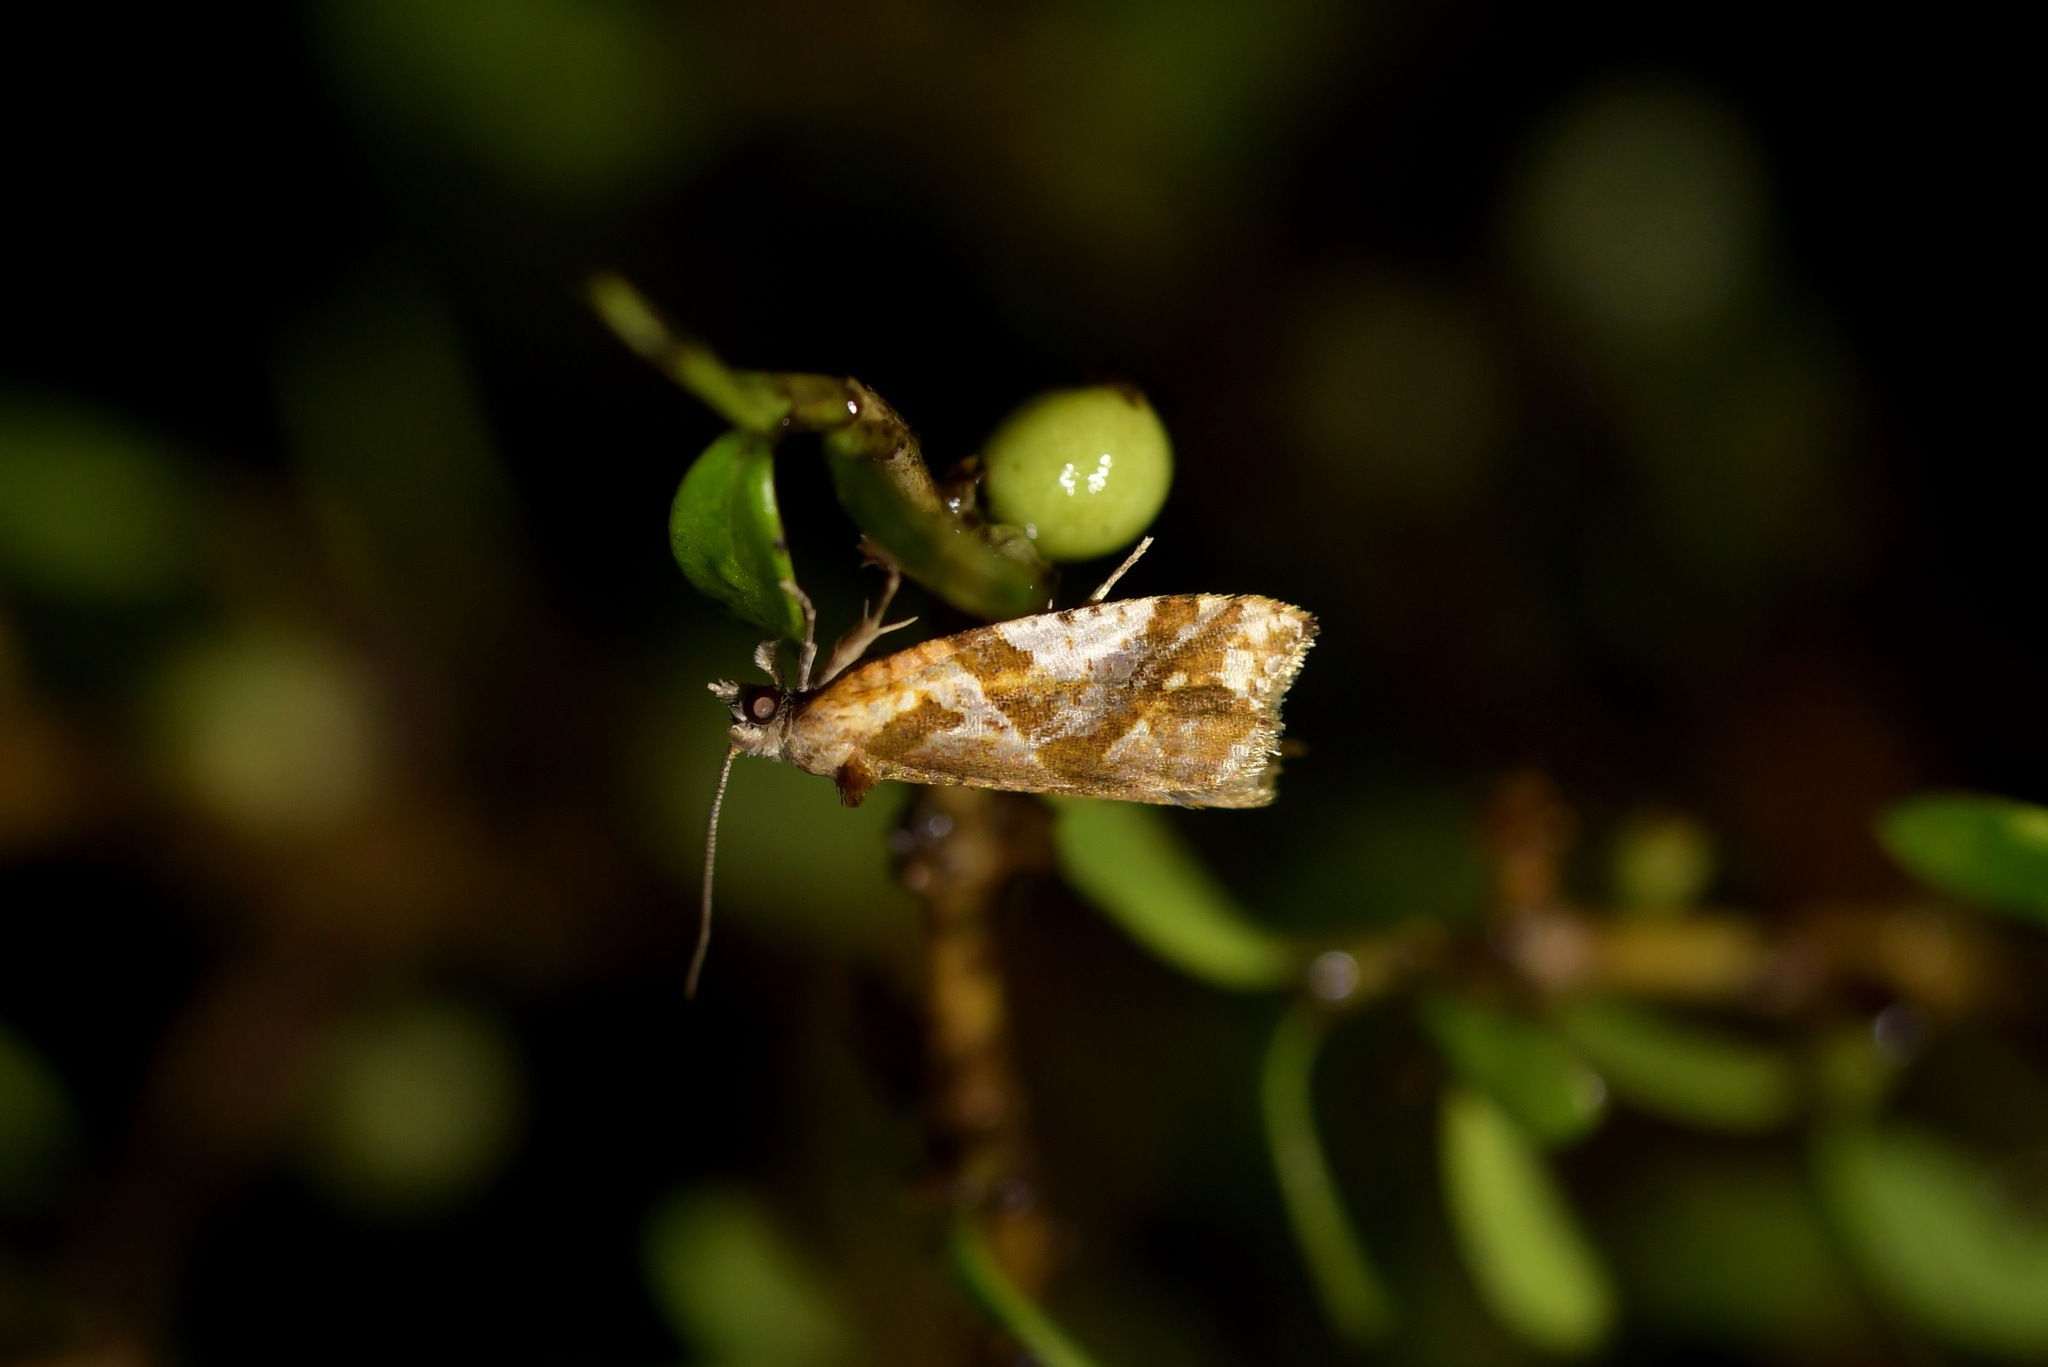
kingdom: Animalia
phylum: Arthropoda
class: Insecta
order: Lepidoptera
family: Tortricidae
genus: Pyrgotis
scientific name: Pyrgotis plagiatana
